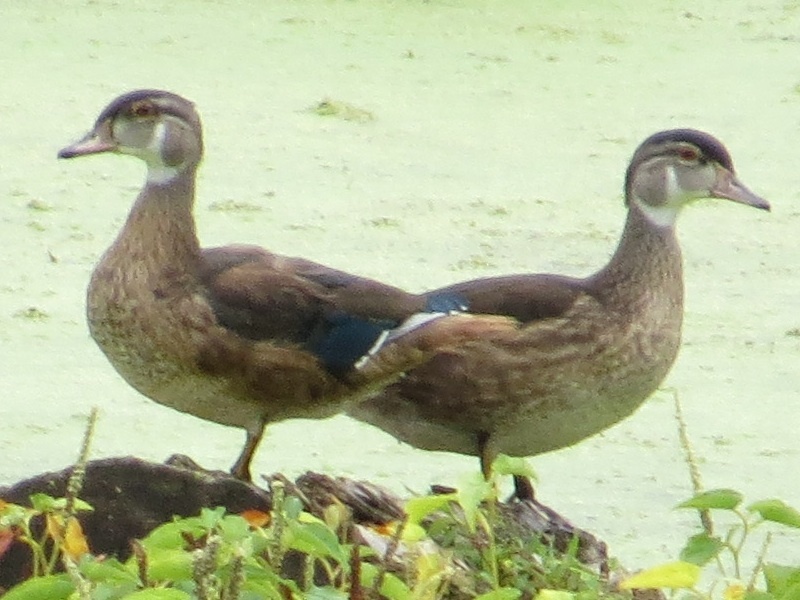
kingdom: Animalia
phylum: Chordata
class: Aves
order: Anseriformes
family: Anatidae
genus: Aix
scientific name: Aix sponsa
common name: Wood duck
